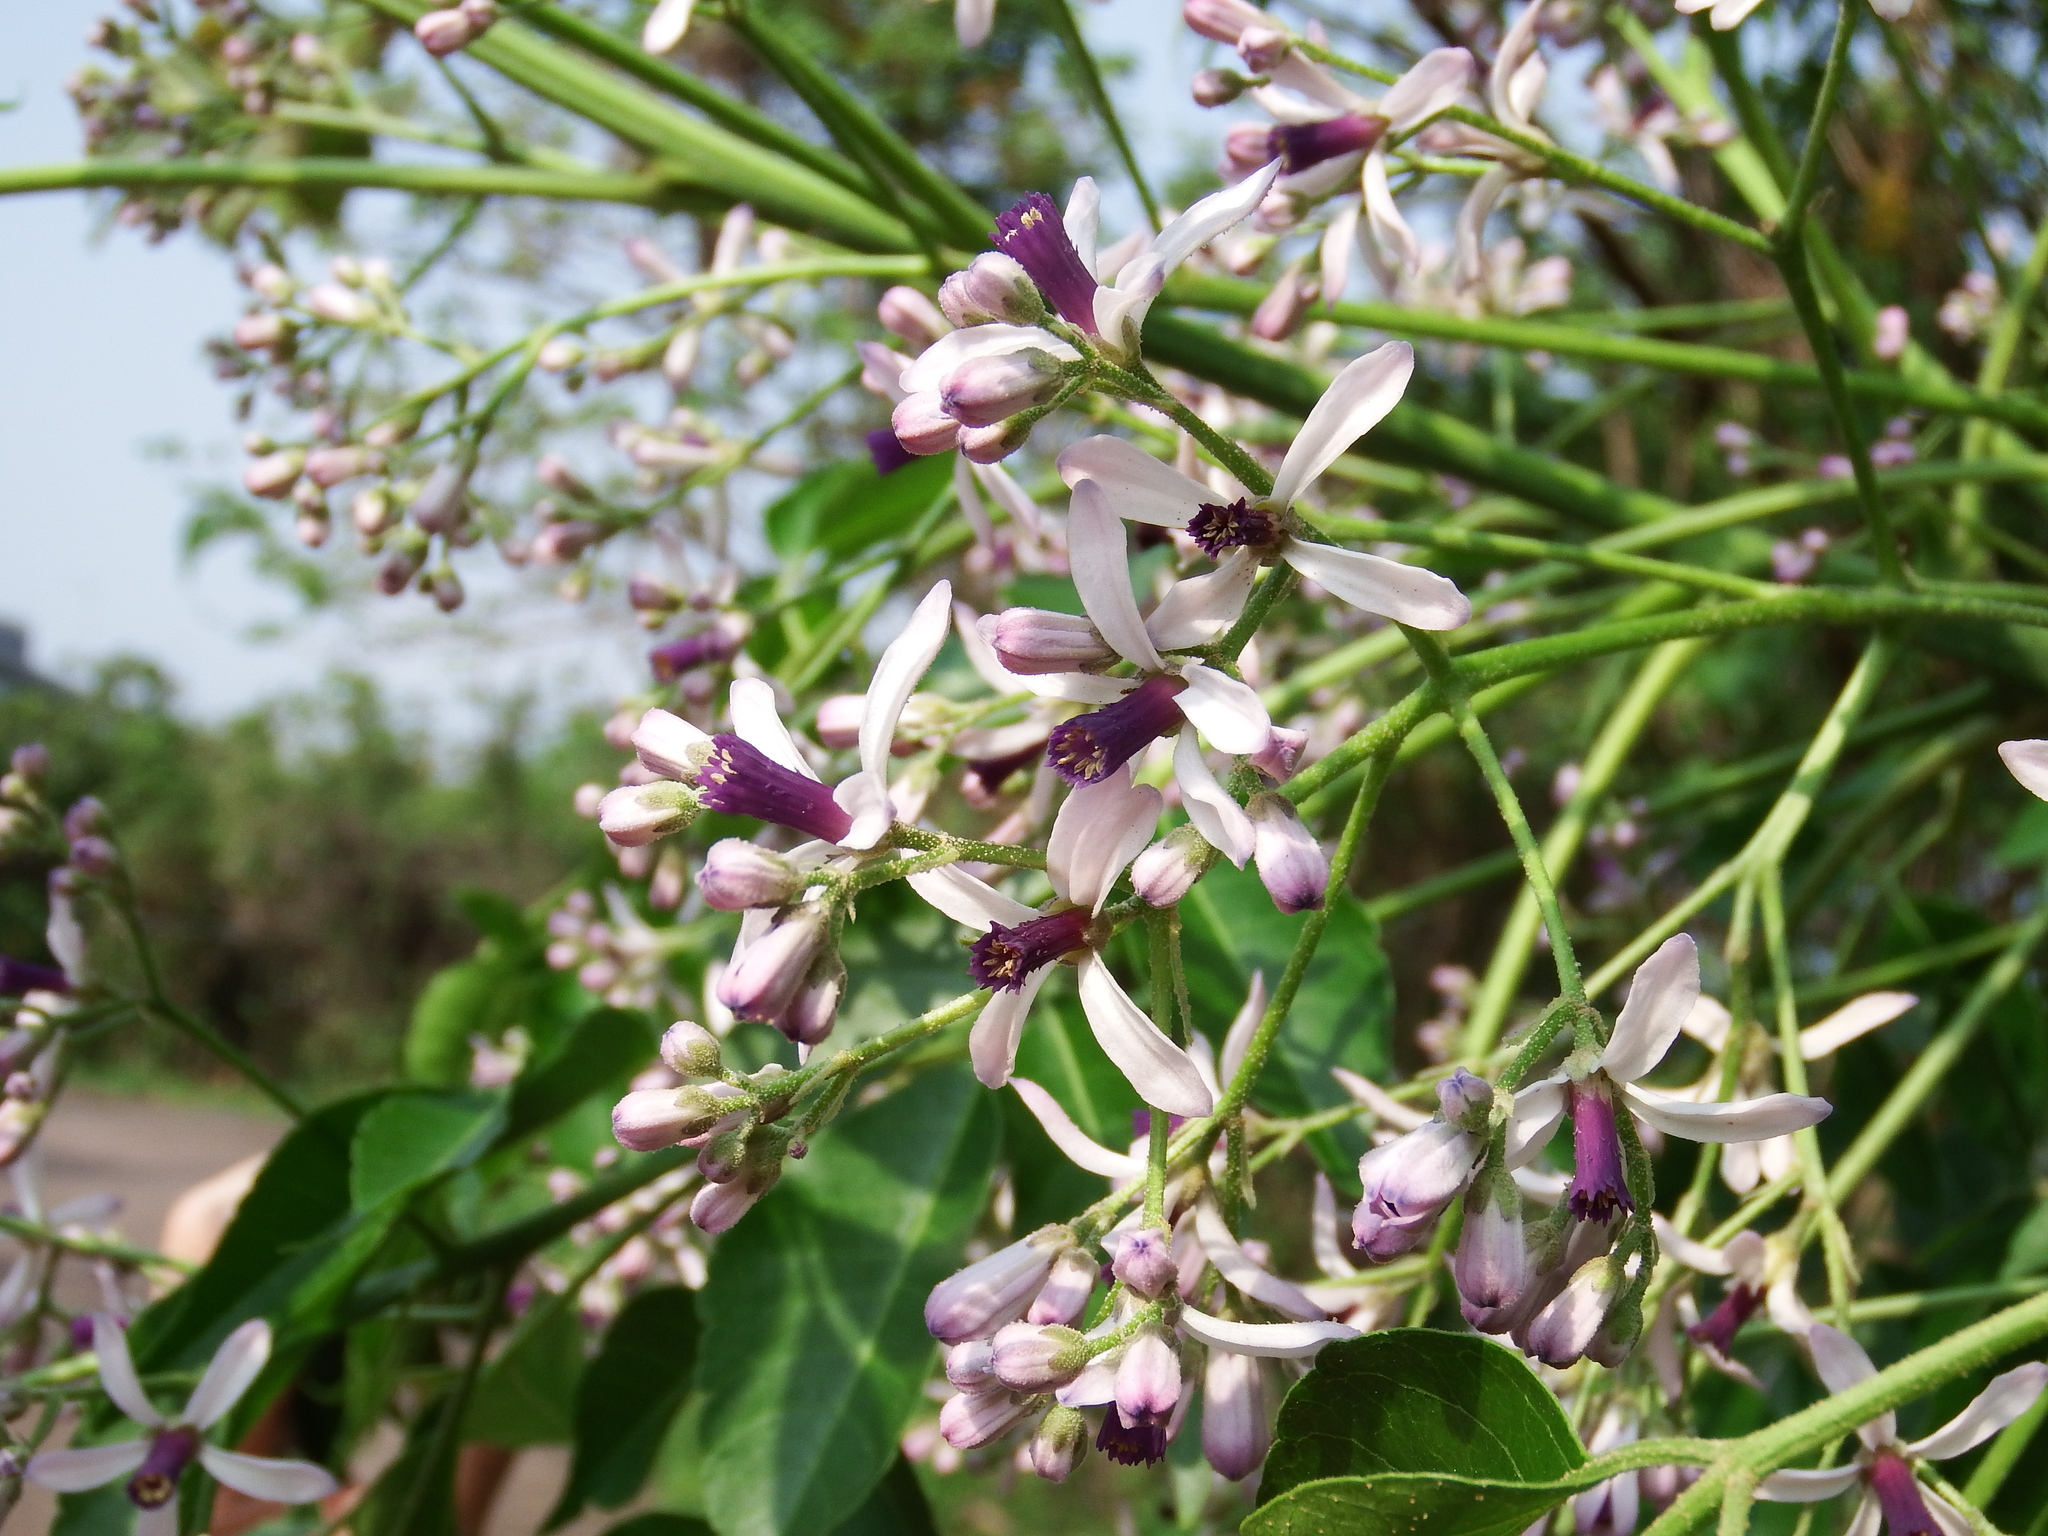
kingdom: Plantae
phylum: Tracheophyta
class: Magnoliopsida
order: Sapindales
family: Meliaceae
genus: Melia
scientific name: Melia azedarach
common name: Chinaberrytree
